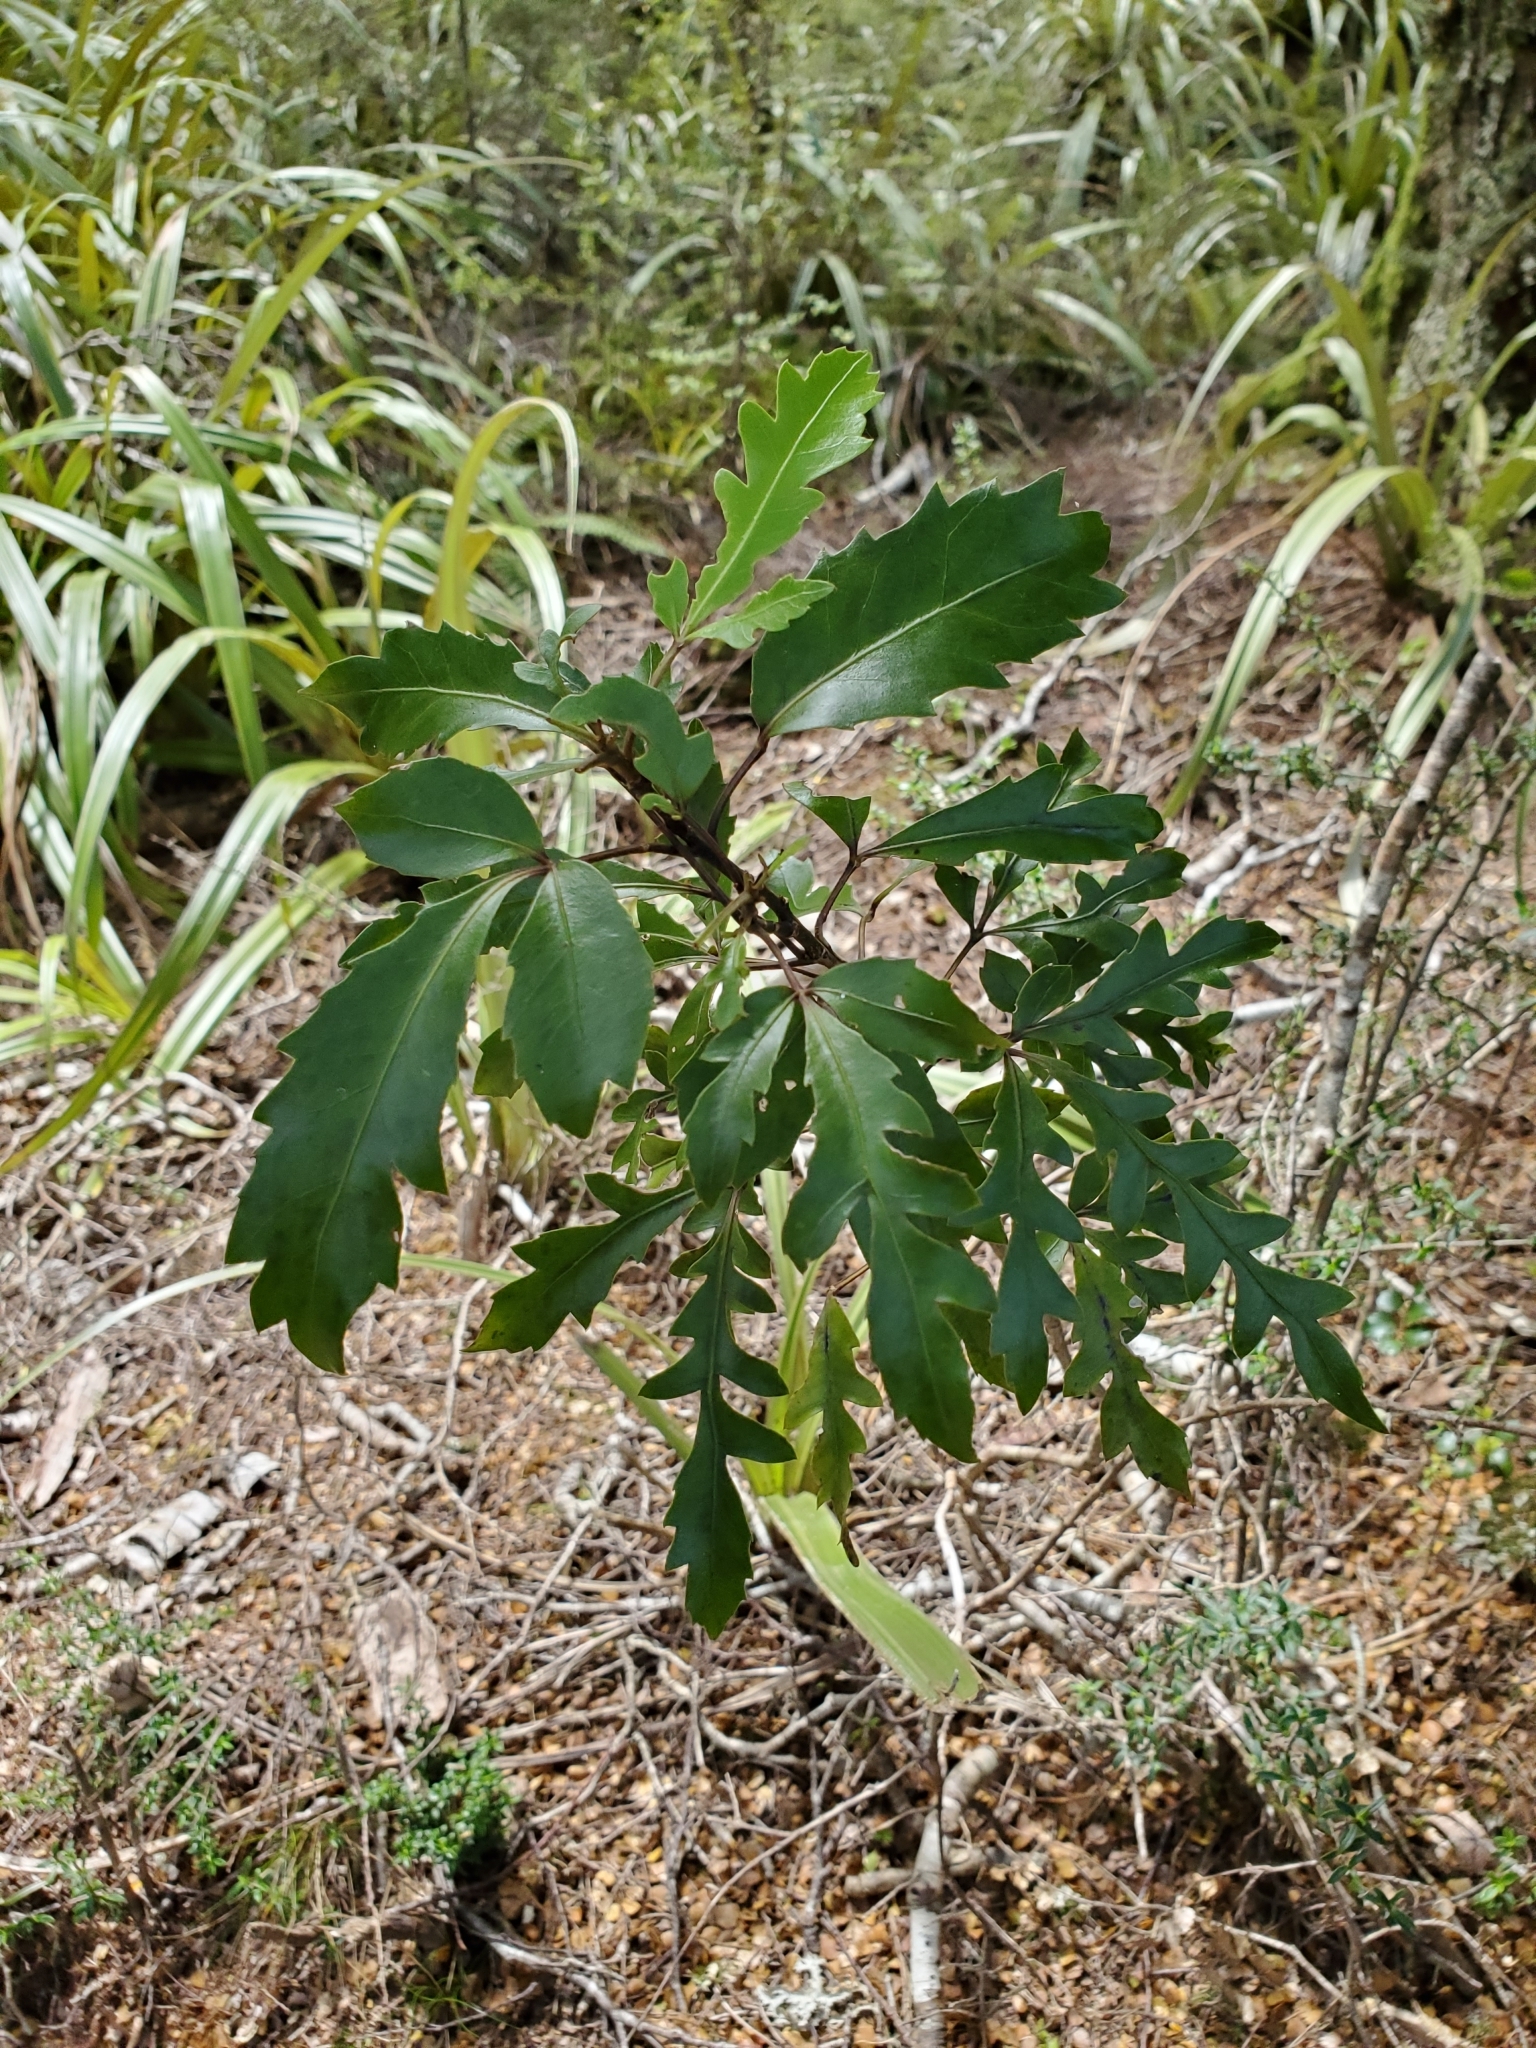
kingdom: Plantae
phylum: Tracheophyta
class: Magnoliopsida
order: Apiales
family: Araliaceae
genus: Raukaua
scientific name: Raukaua simplex
